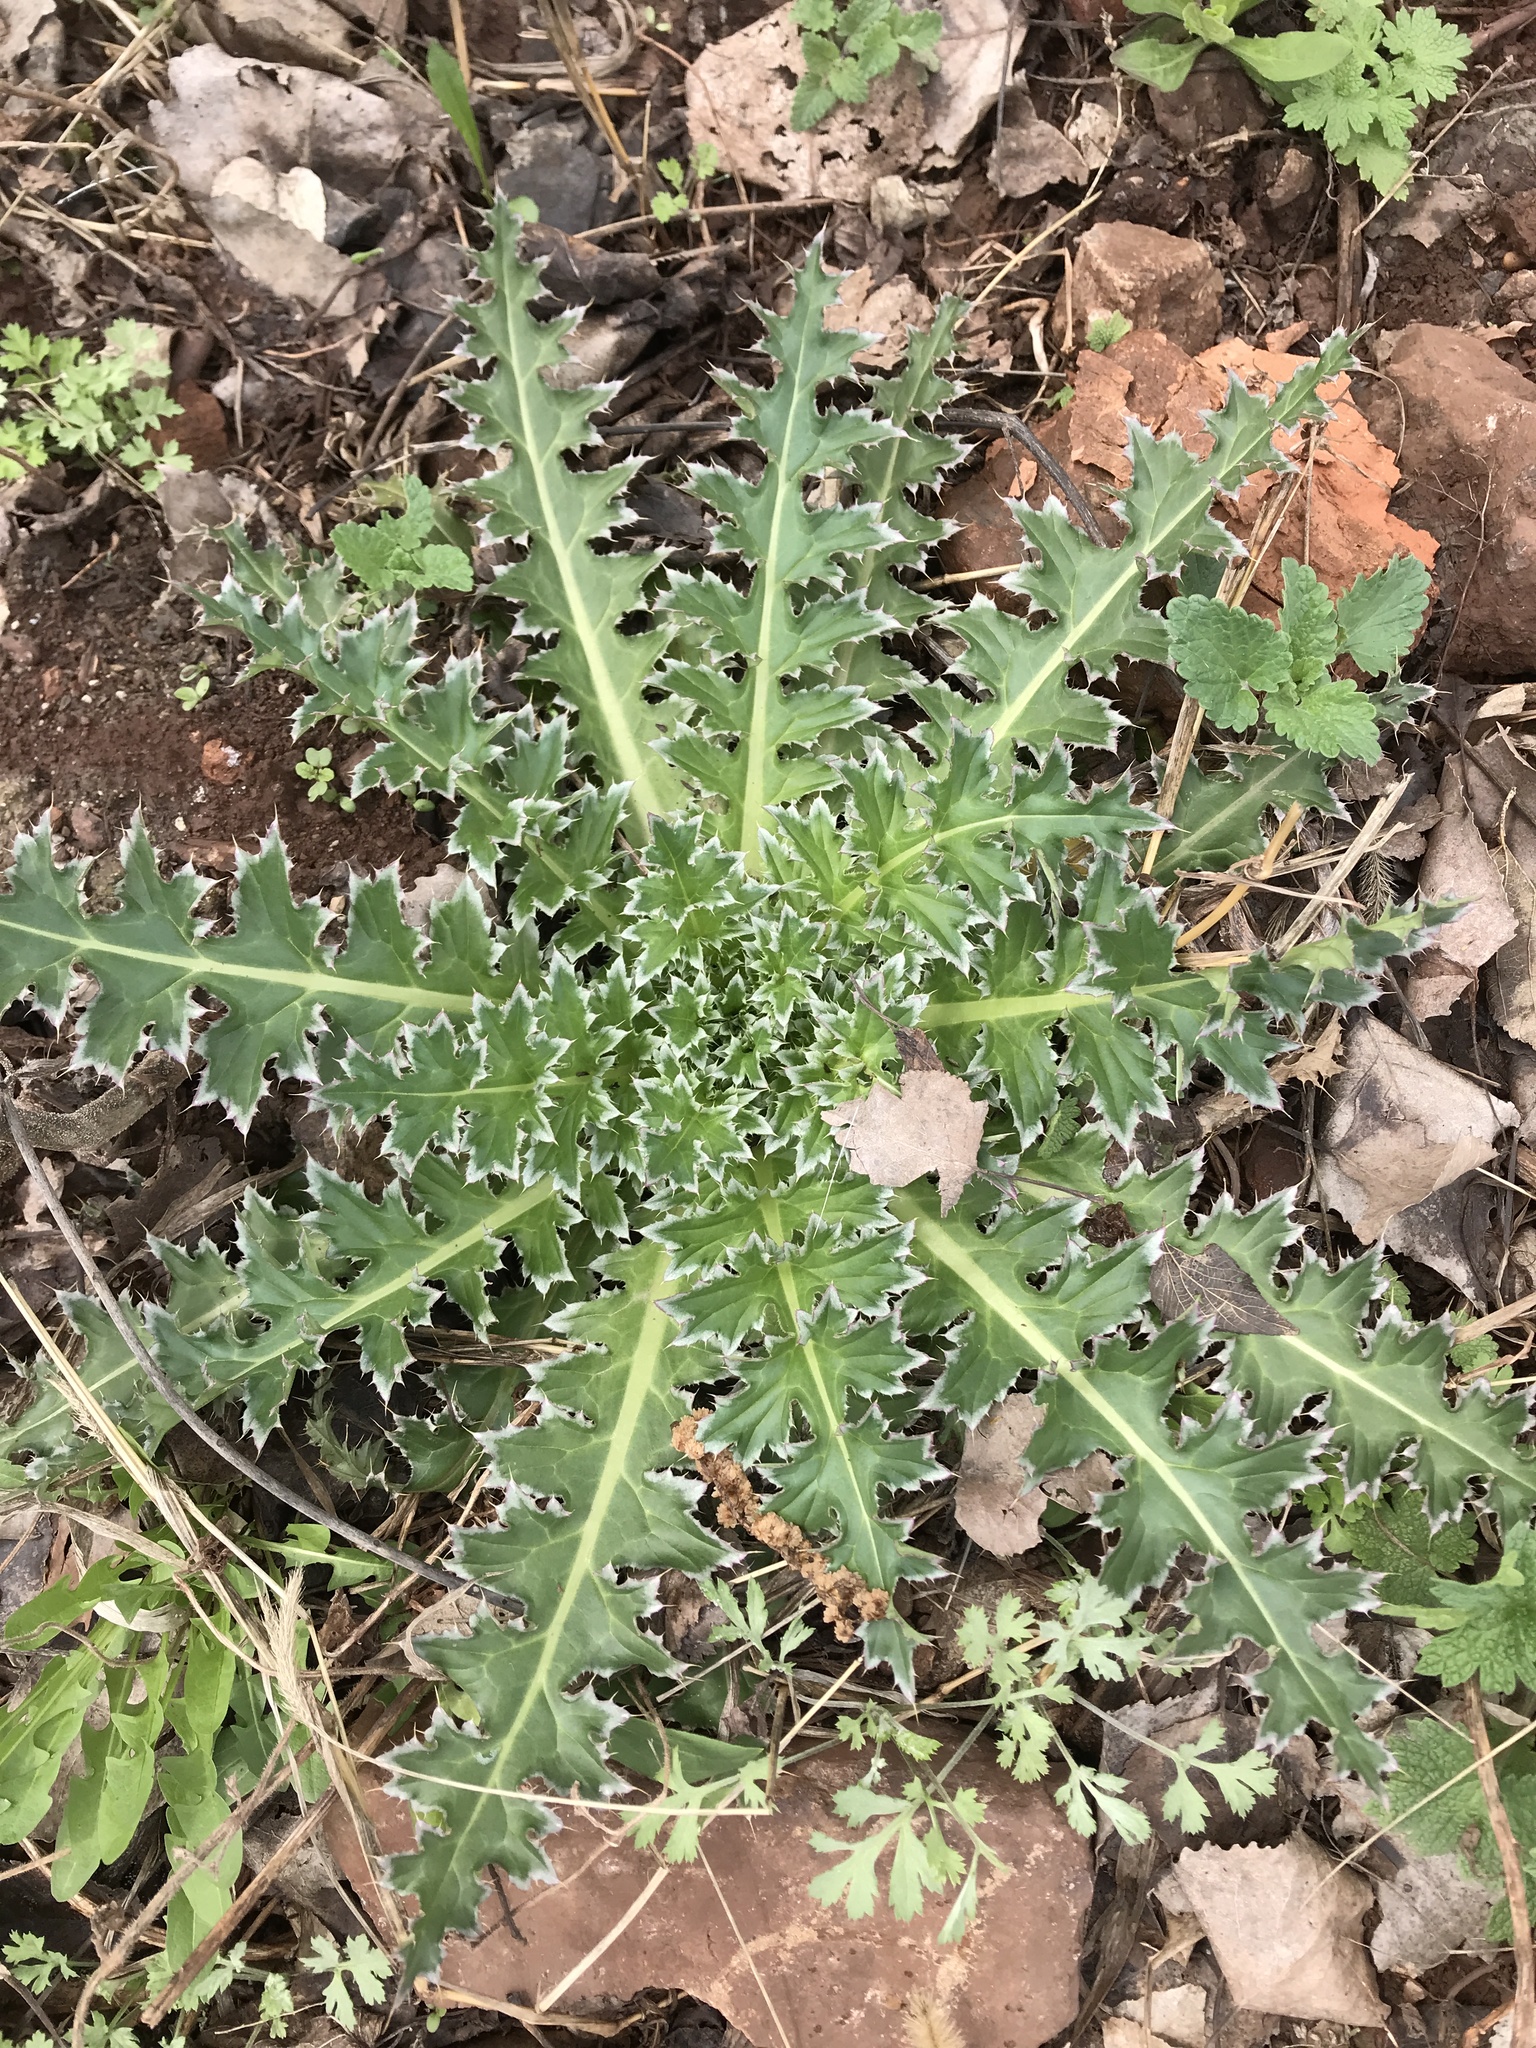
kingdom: Plantae
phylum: Tracheophyta
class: Magnoliopsida
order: Asterales
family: Asteraceae
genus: Carduus
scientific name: Carduus nutans
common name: Musk thistle
